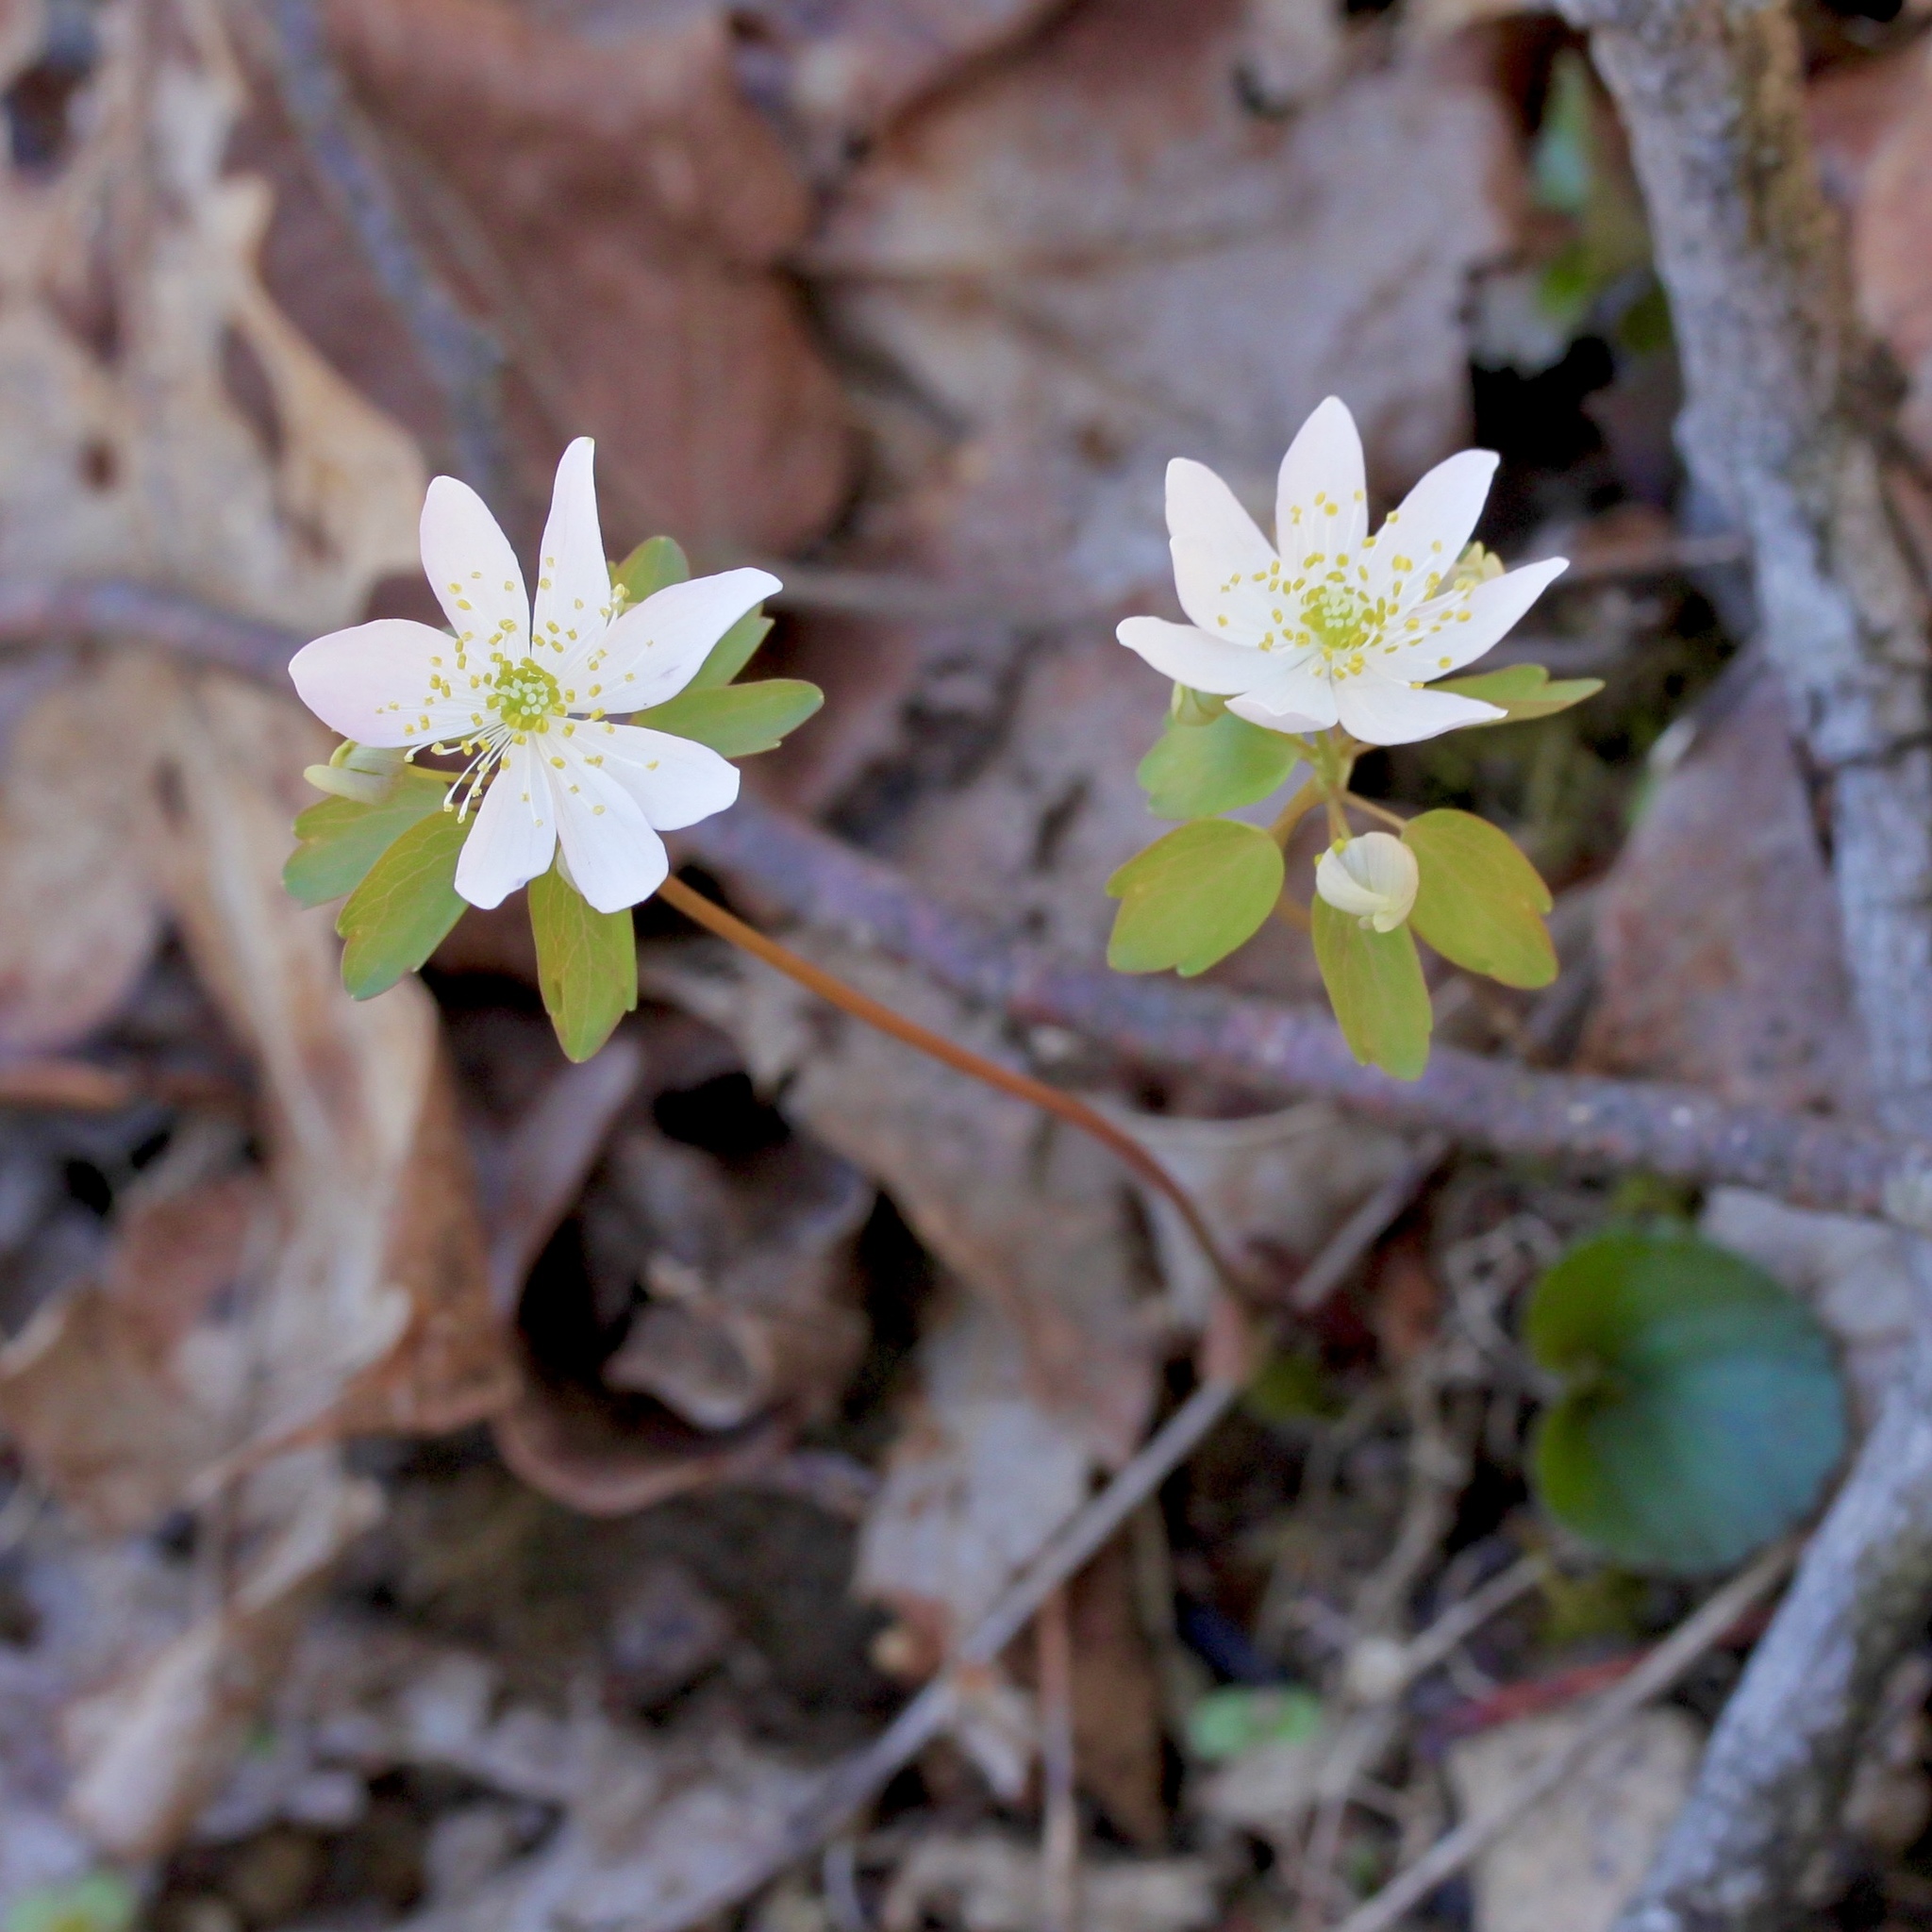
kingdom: Plantae
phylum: Tracheophyta
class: Magnoliopsida
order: Ranunculales
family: Ranunculaceae
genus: Thalictrum
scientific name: Thalictrum thalictroides
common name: Rue-anemone
